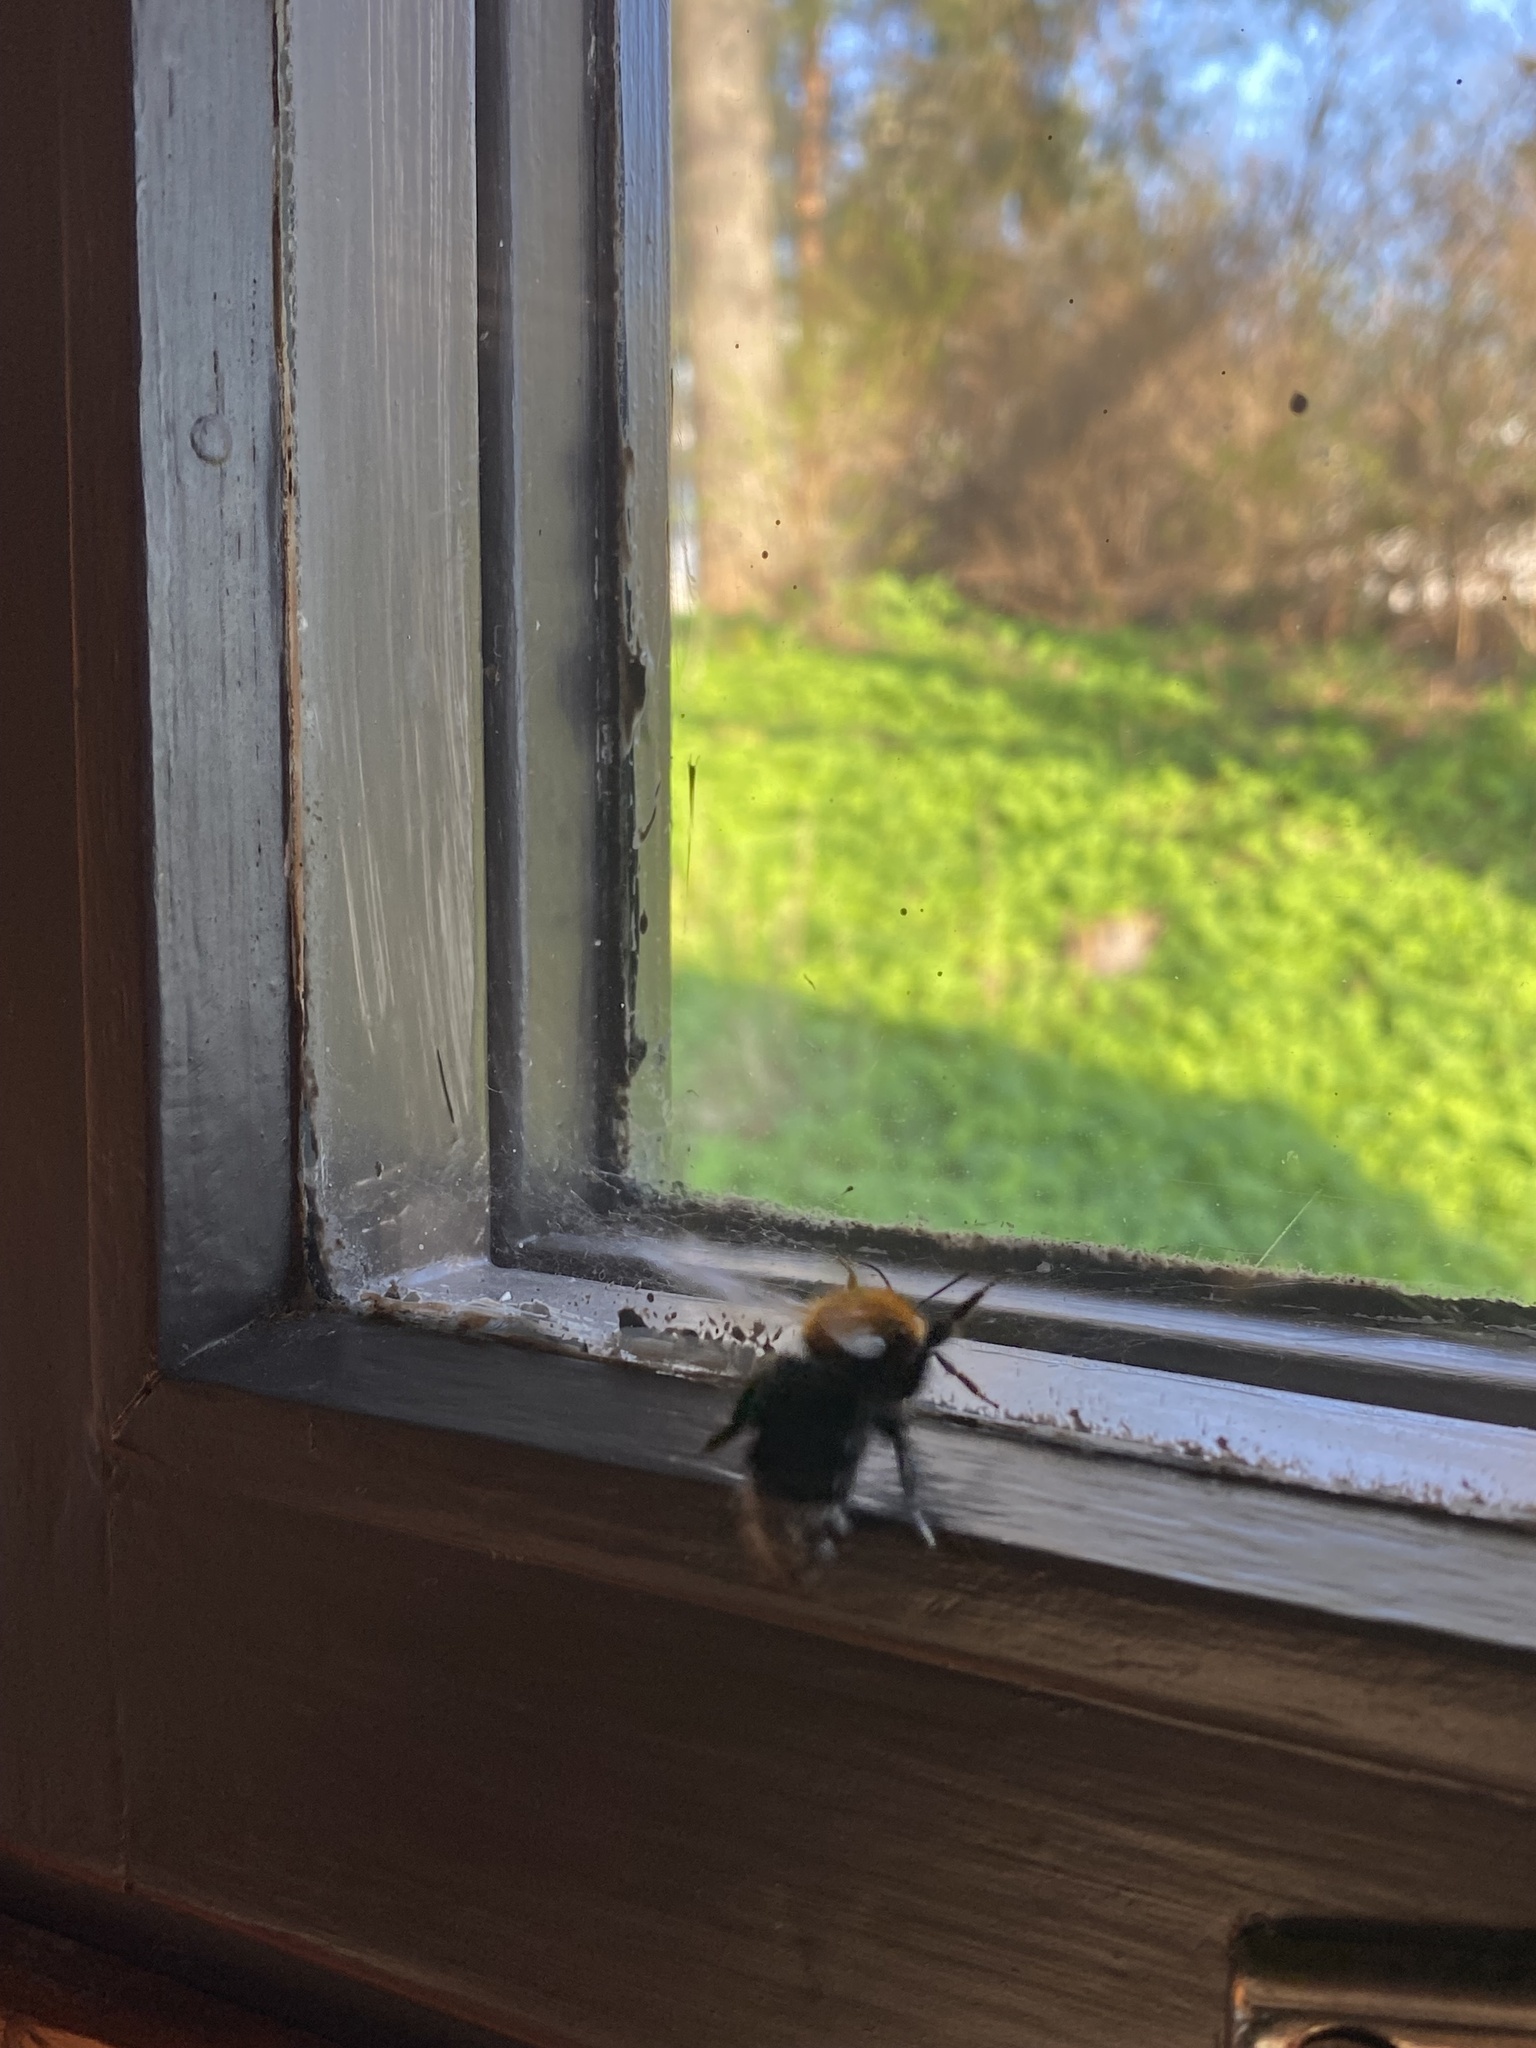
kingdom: Animalia
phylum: Arthropoda
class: Insecta
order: Hymenoptera
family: Apidae
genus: Bombus
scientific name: Bombus hypnorum
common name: New garden bumblebee
